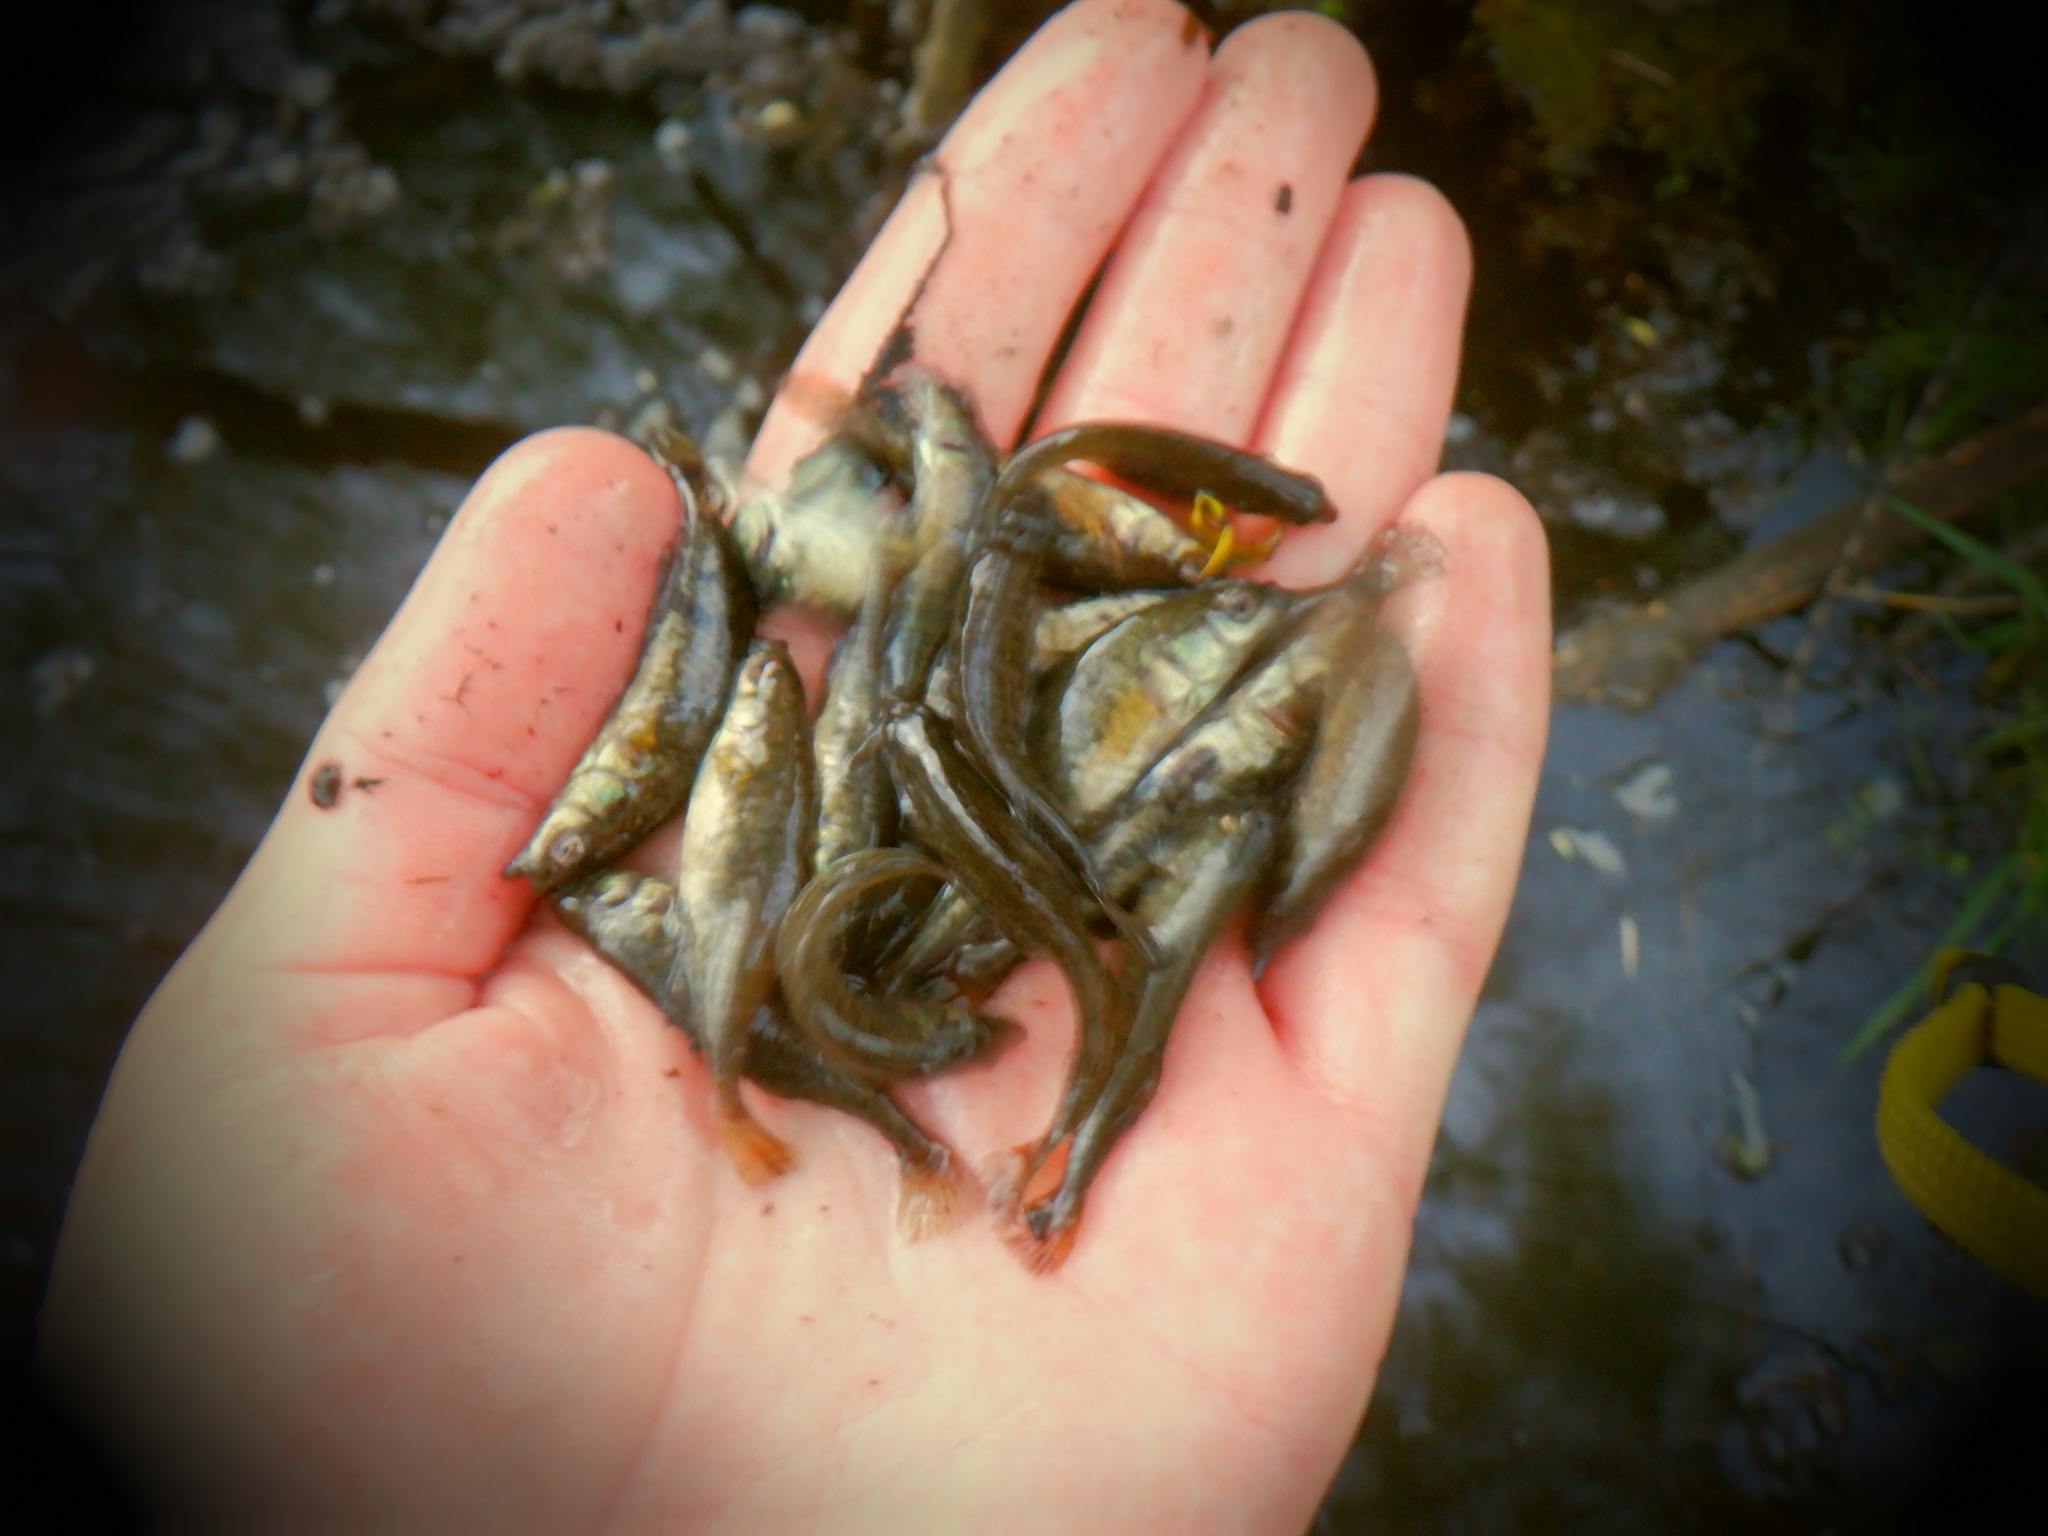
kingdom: Animalia
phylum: Chordata
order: Gasterosteiformes
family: Gasterosteidae
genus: Culaea
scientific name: Culaea inconstans
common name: Brook stickleback
